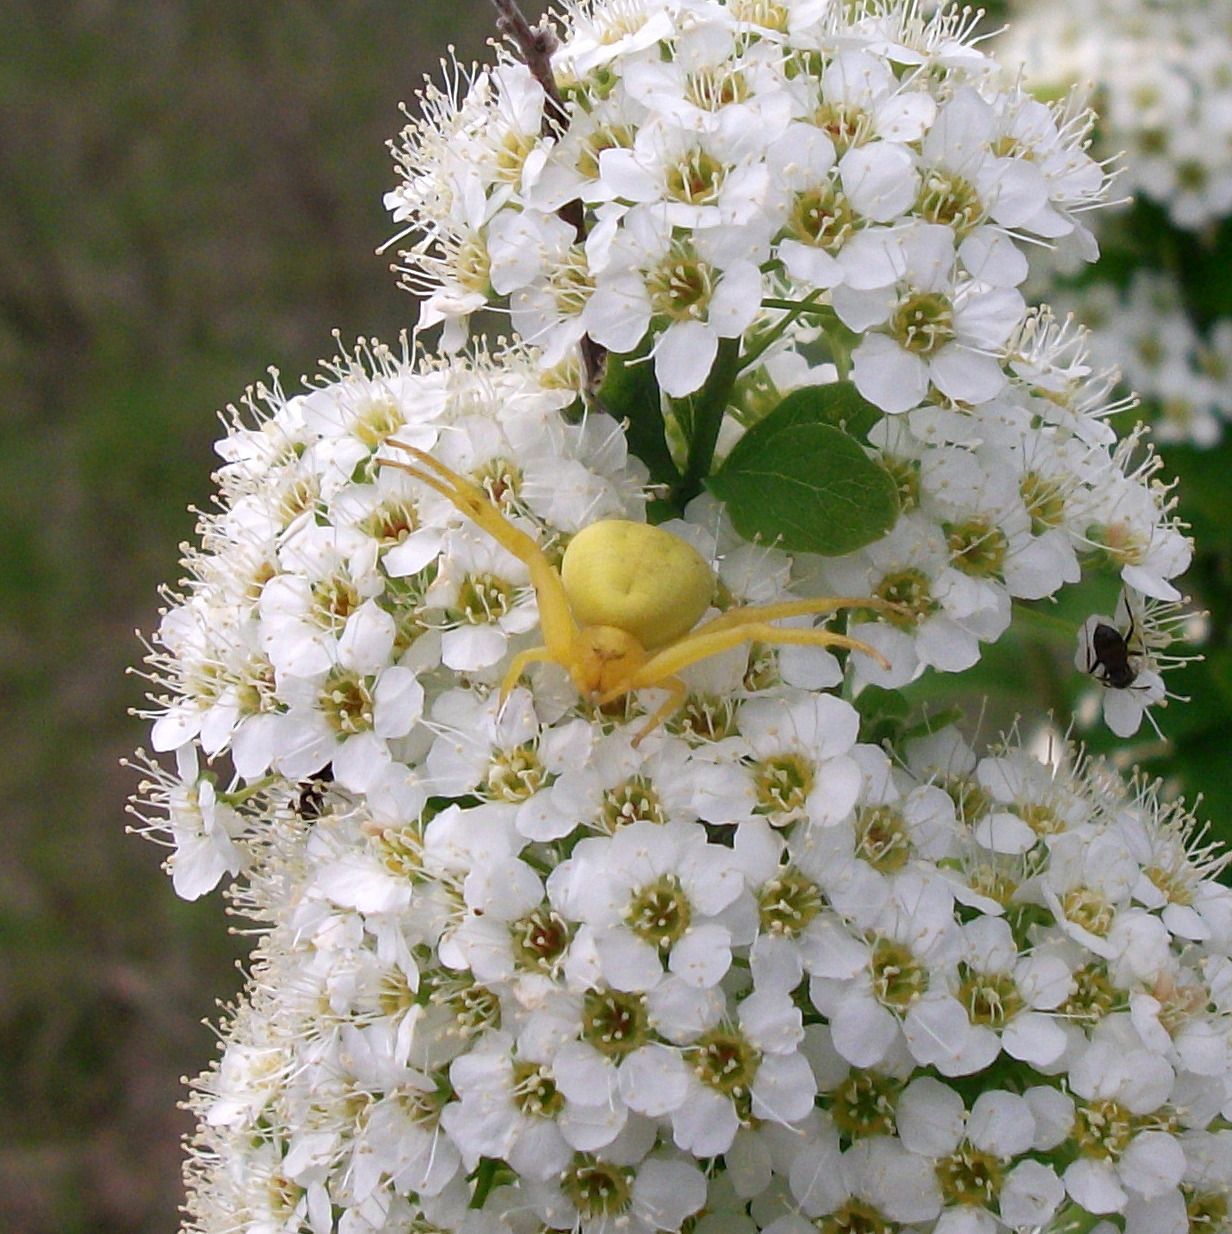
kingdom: Animalia
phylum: Arthropoda
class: Arachnida
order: Araneae
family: Thomisidae
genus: Misumena
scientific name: Misumena vatia
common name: Goldenrod crab spider
